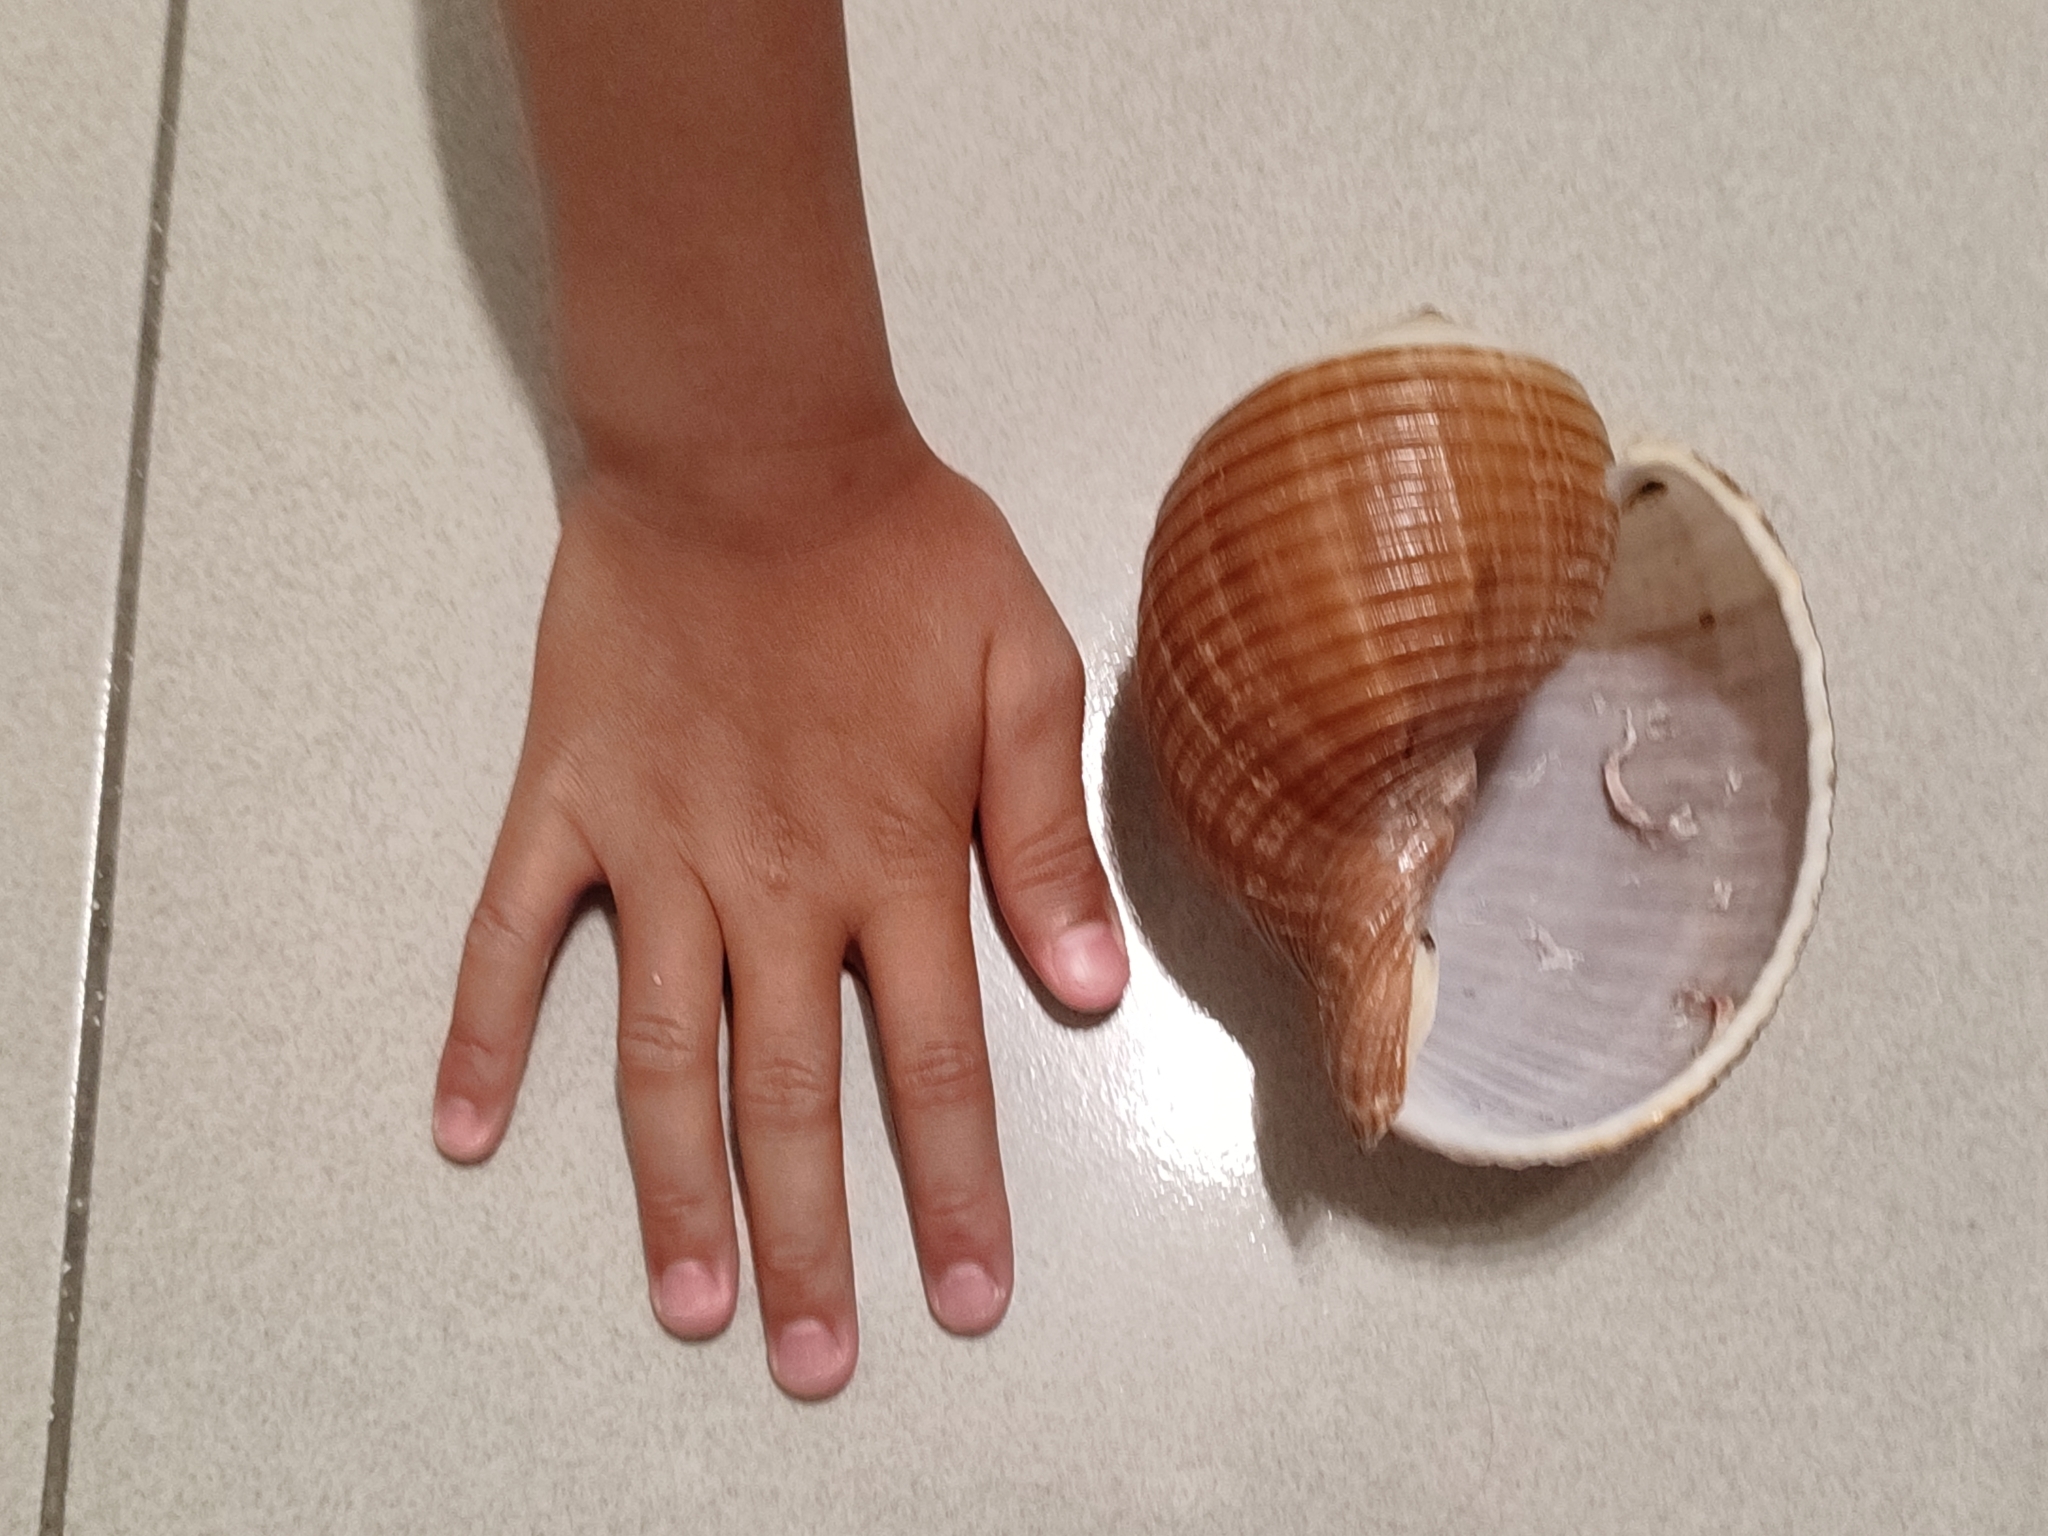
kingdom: Animalia
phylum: Mollusca
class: Gastropoda
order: Littorinimorpha
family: Tonnidae
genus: Tonna
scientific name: Tonna galea
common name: Giant tun
